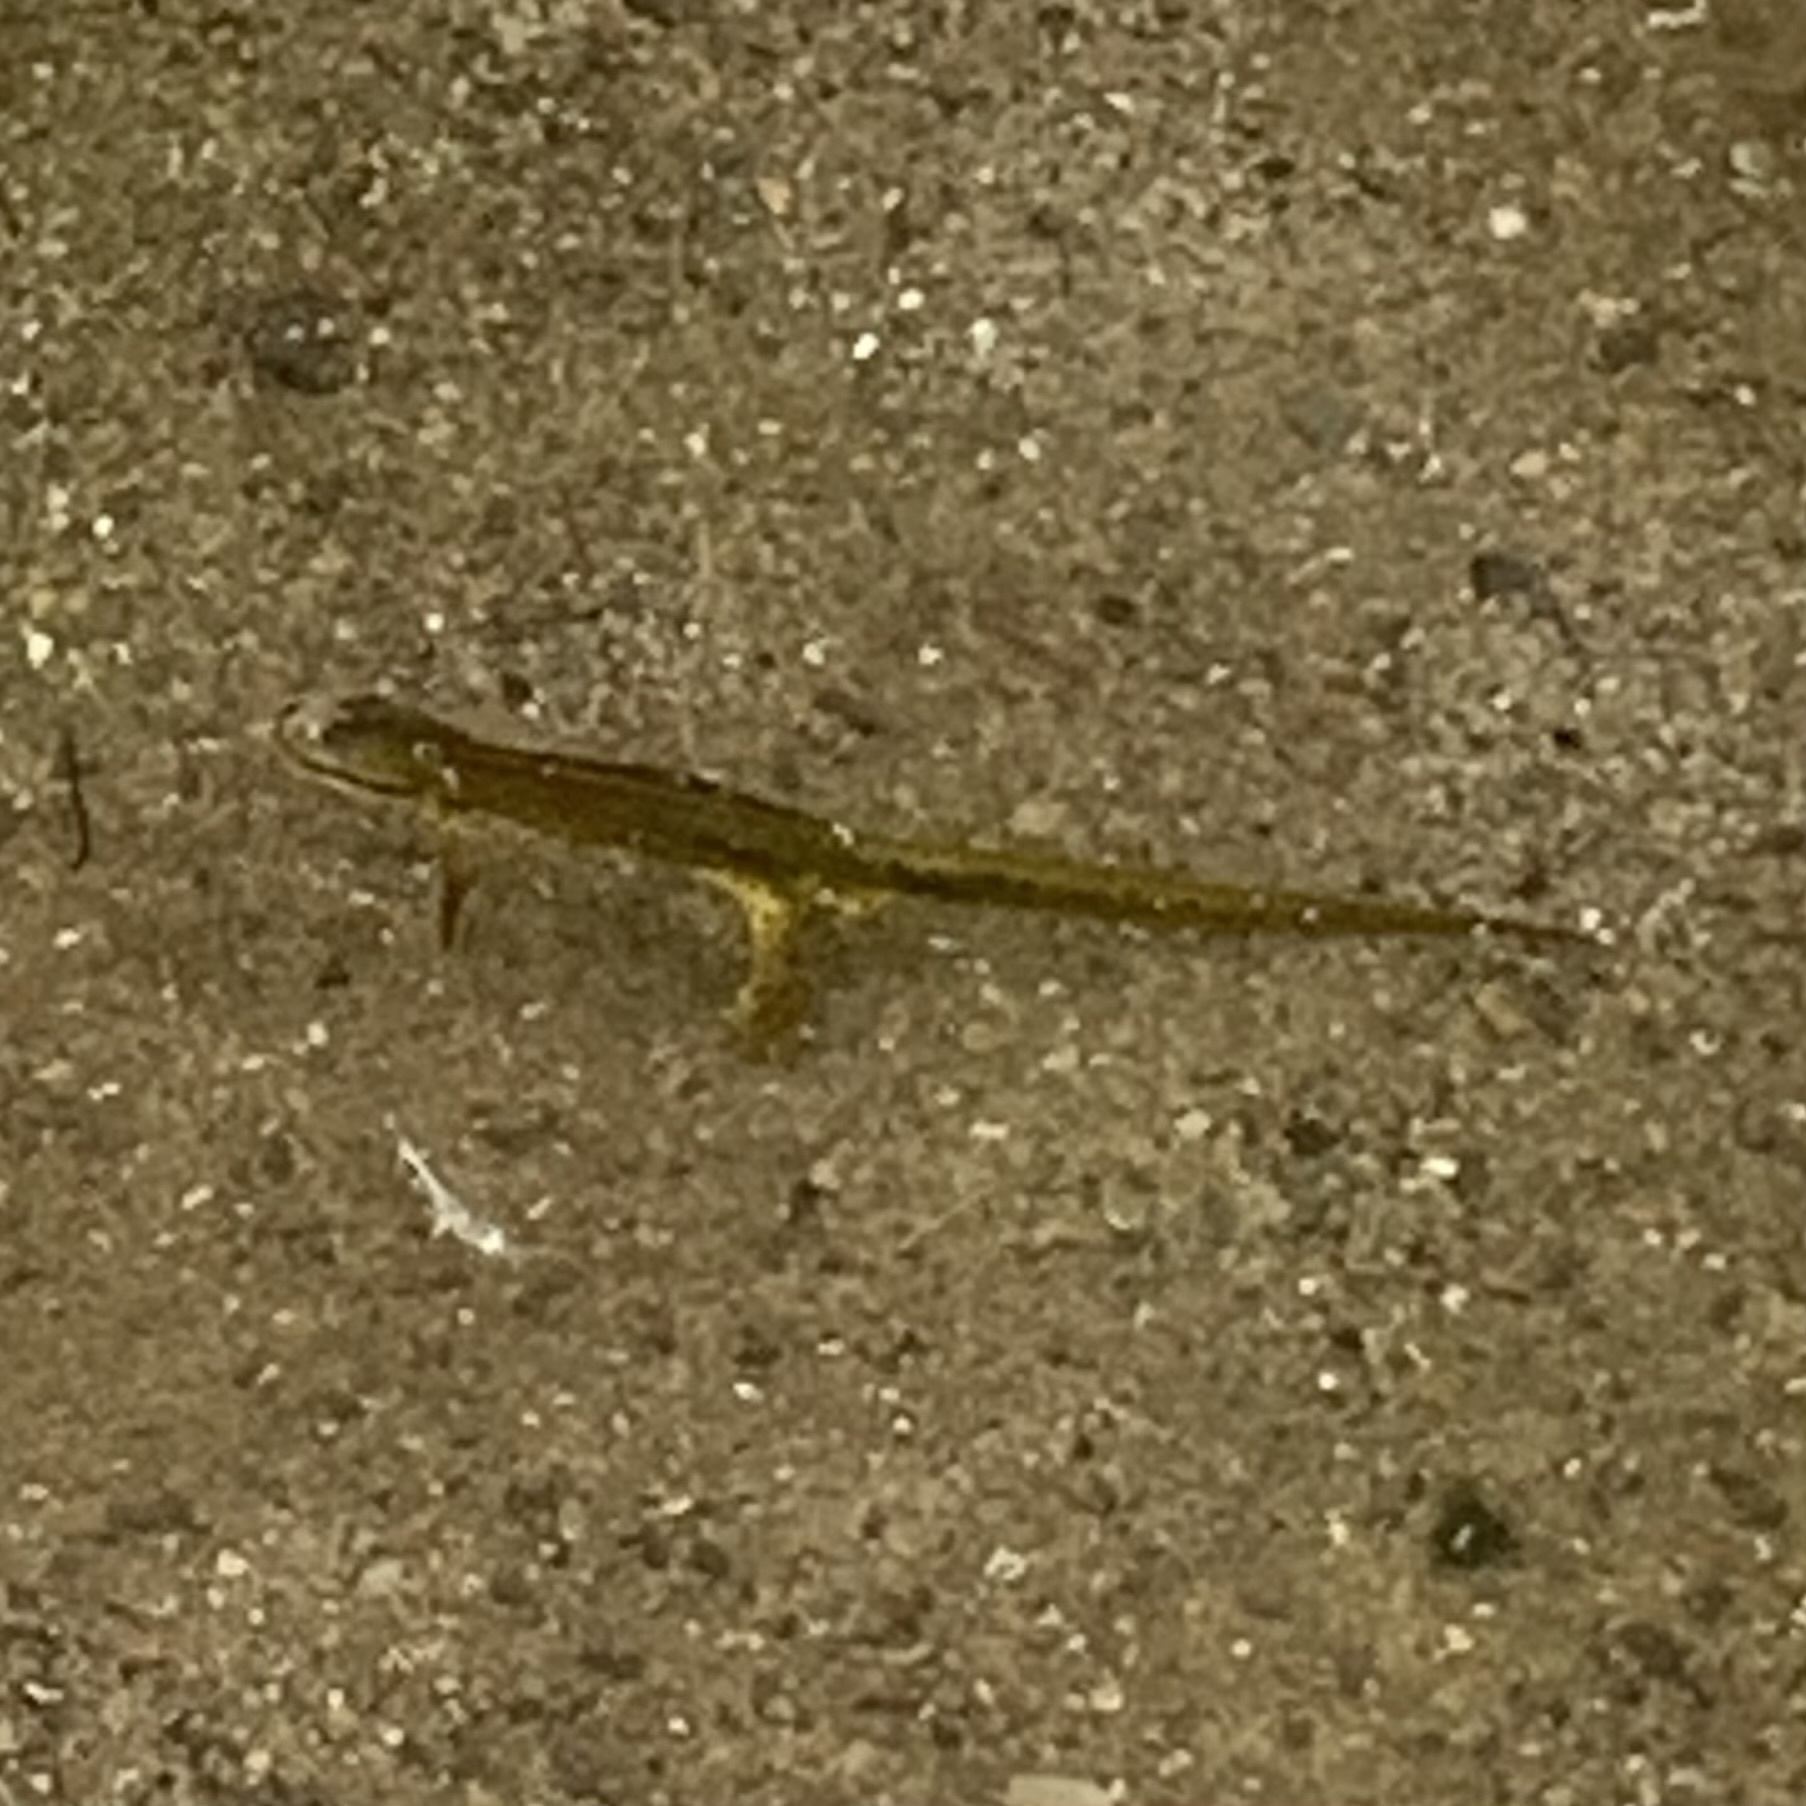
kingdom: Animalia
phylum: Chordata
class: Amphibia
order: Caudata
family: Salamandridae
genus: Notophthalmus
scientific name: Notophthalmus viridescens
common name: Eastern newt
